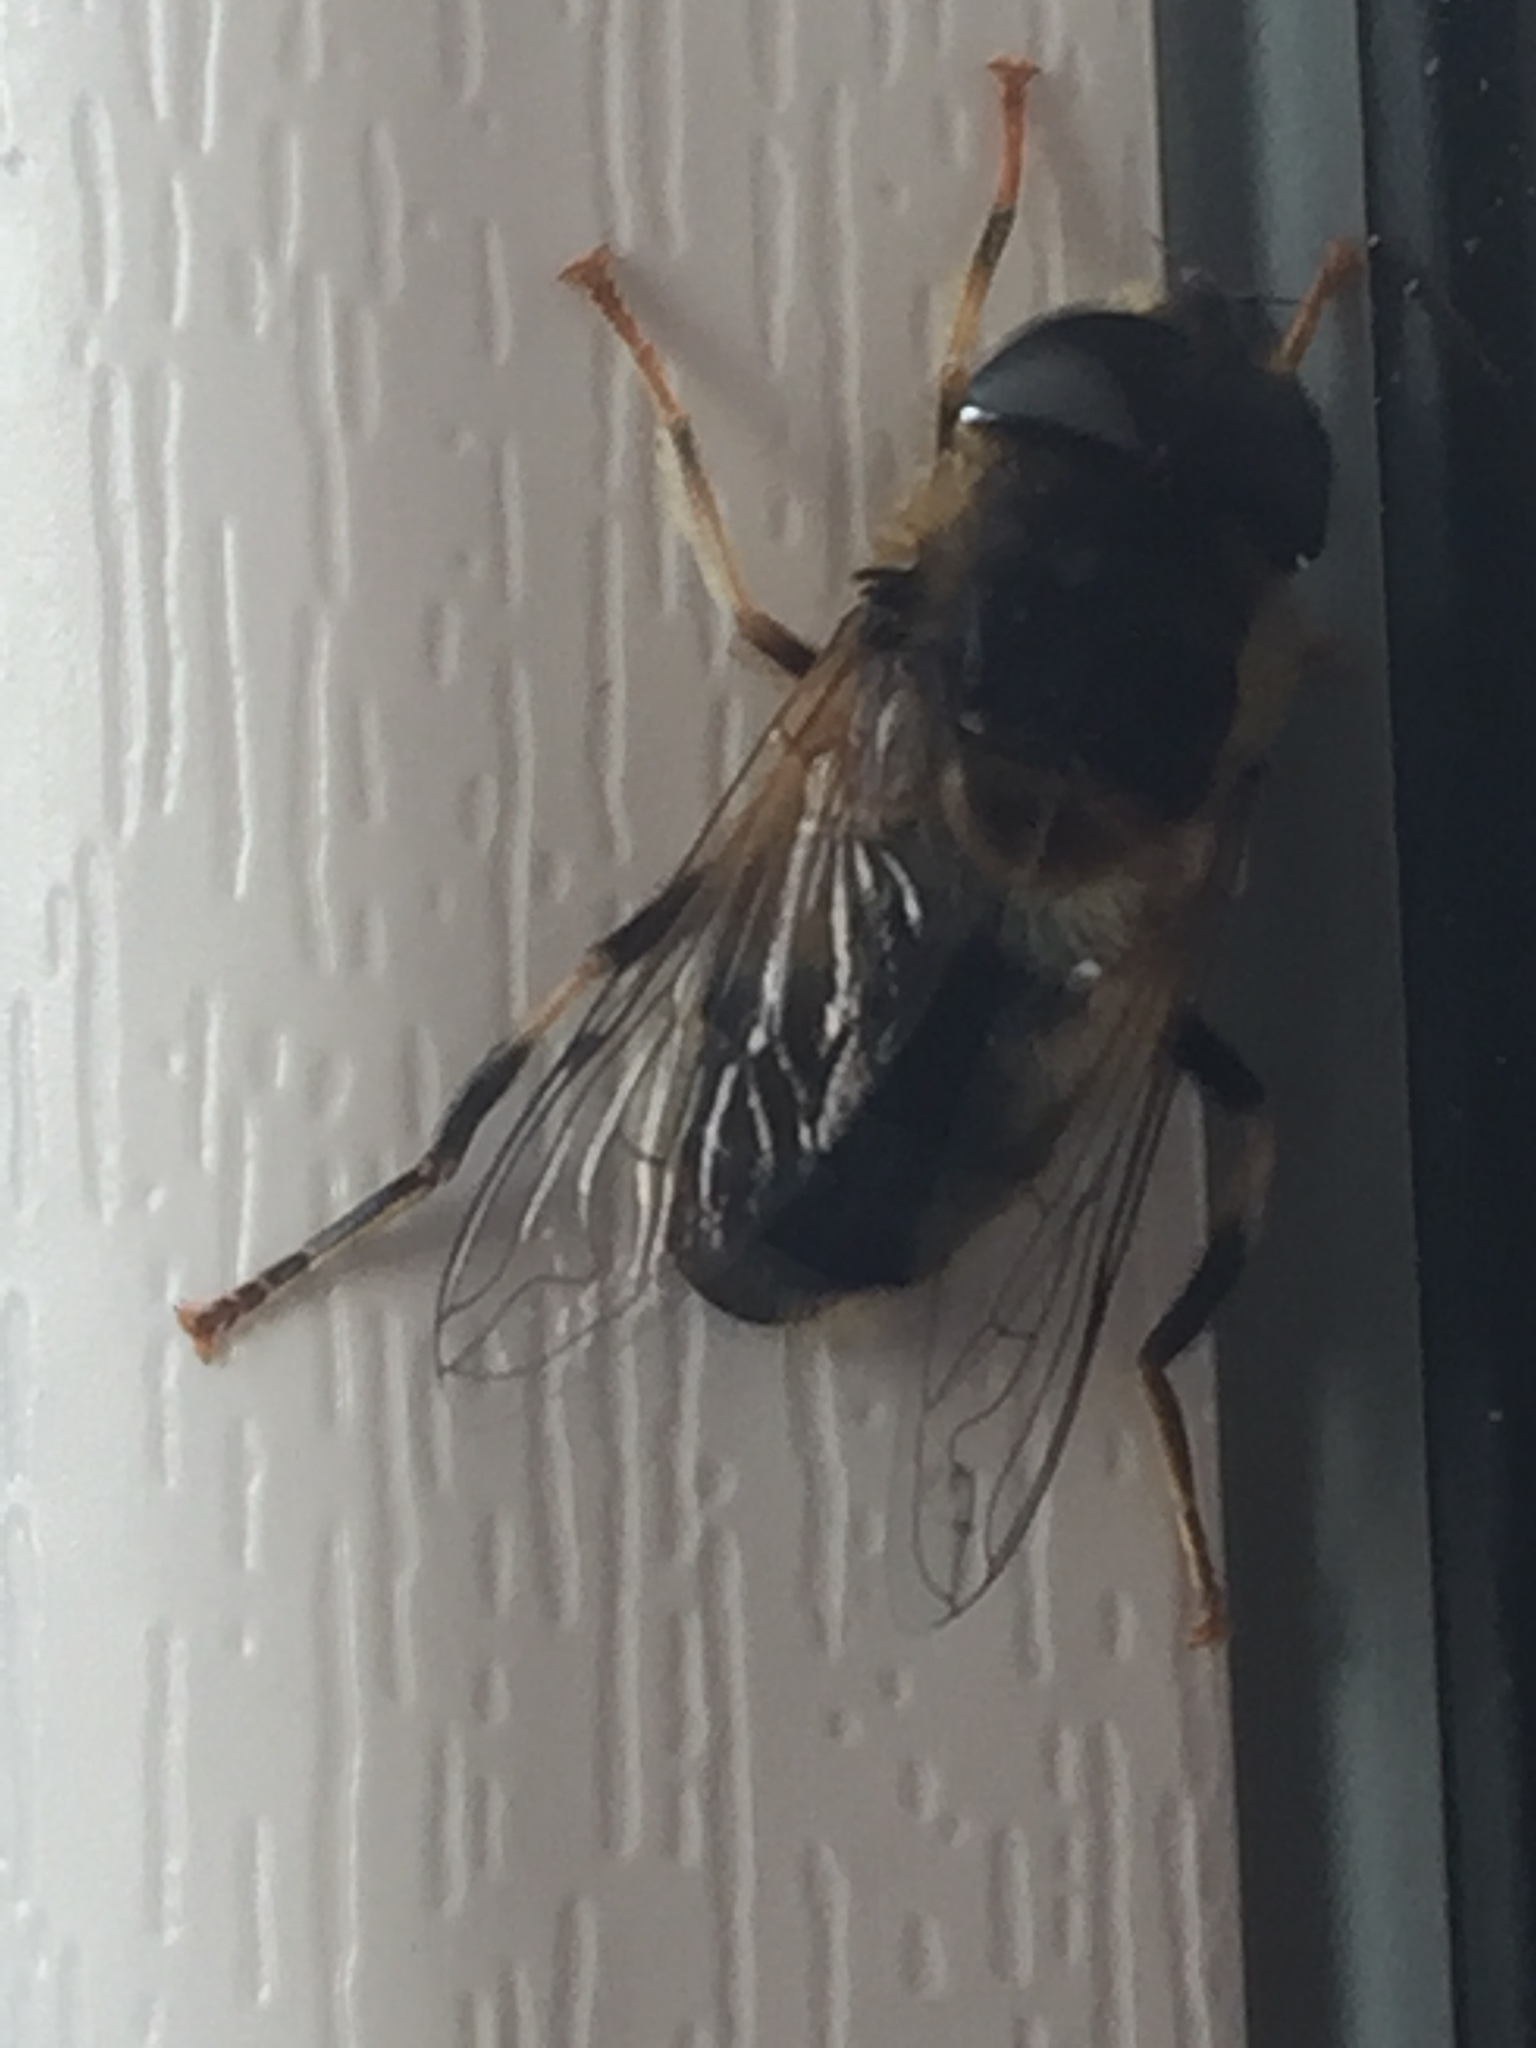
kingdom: Animalia
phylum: Arthropoda
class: Insecta
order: Diptera
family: Syrphidae
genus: Eristalis
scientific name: Eristalis pertinax
